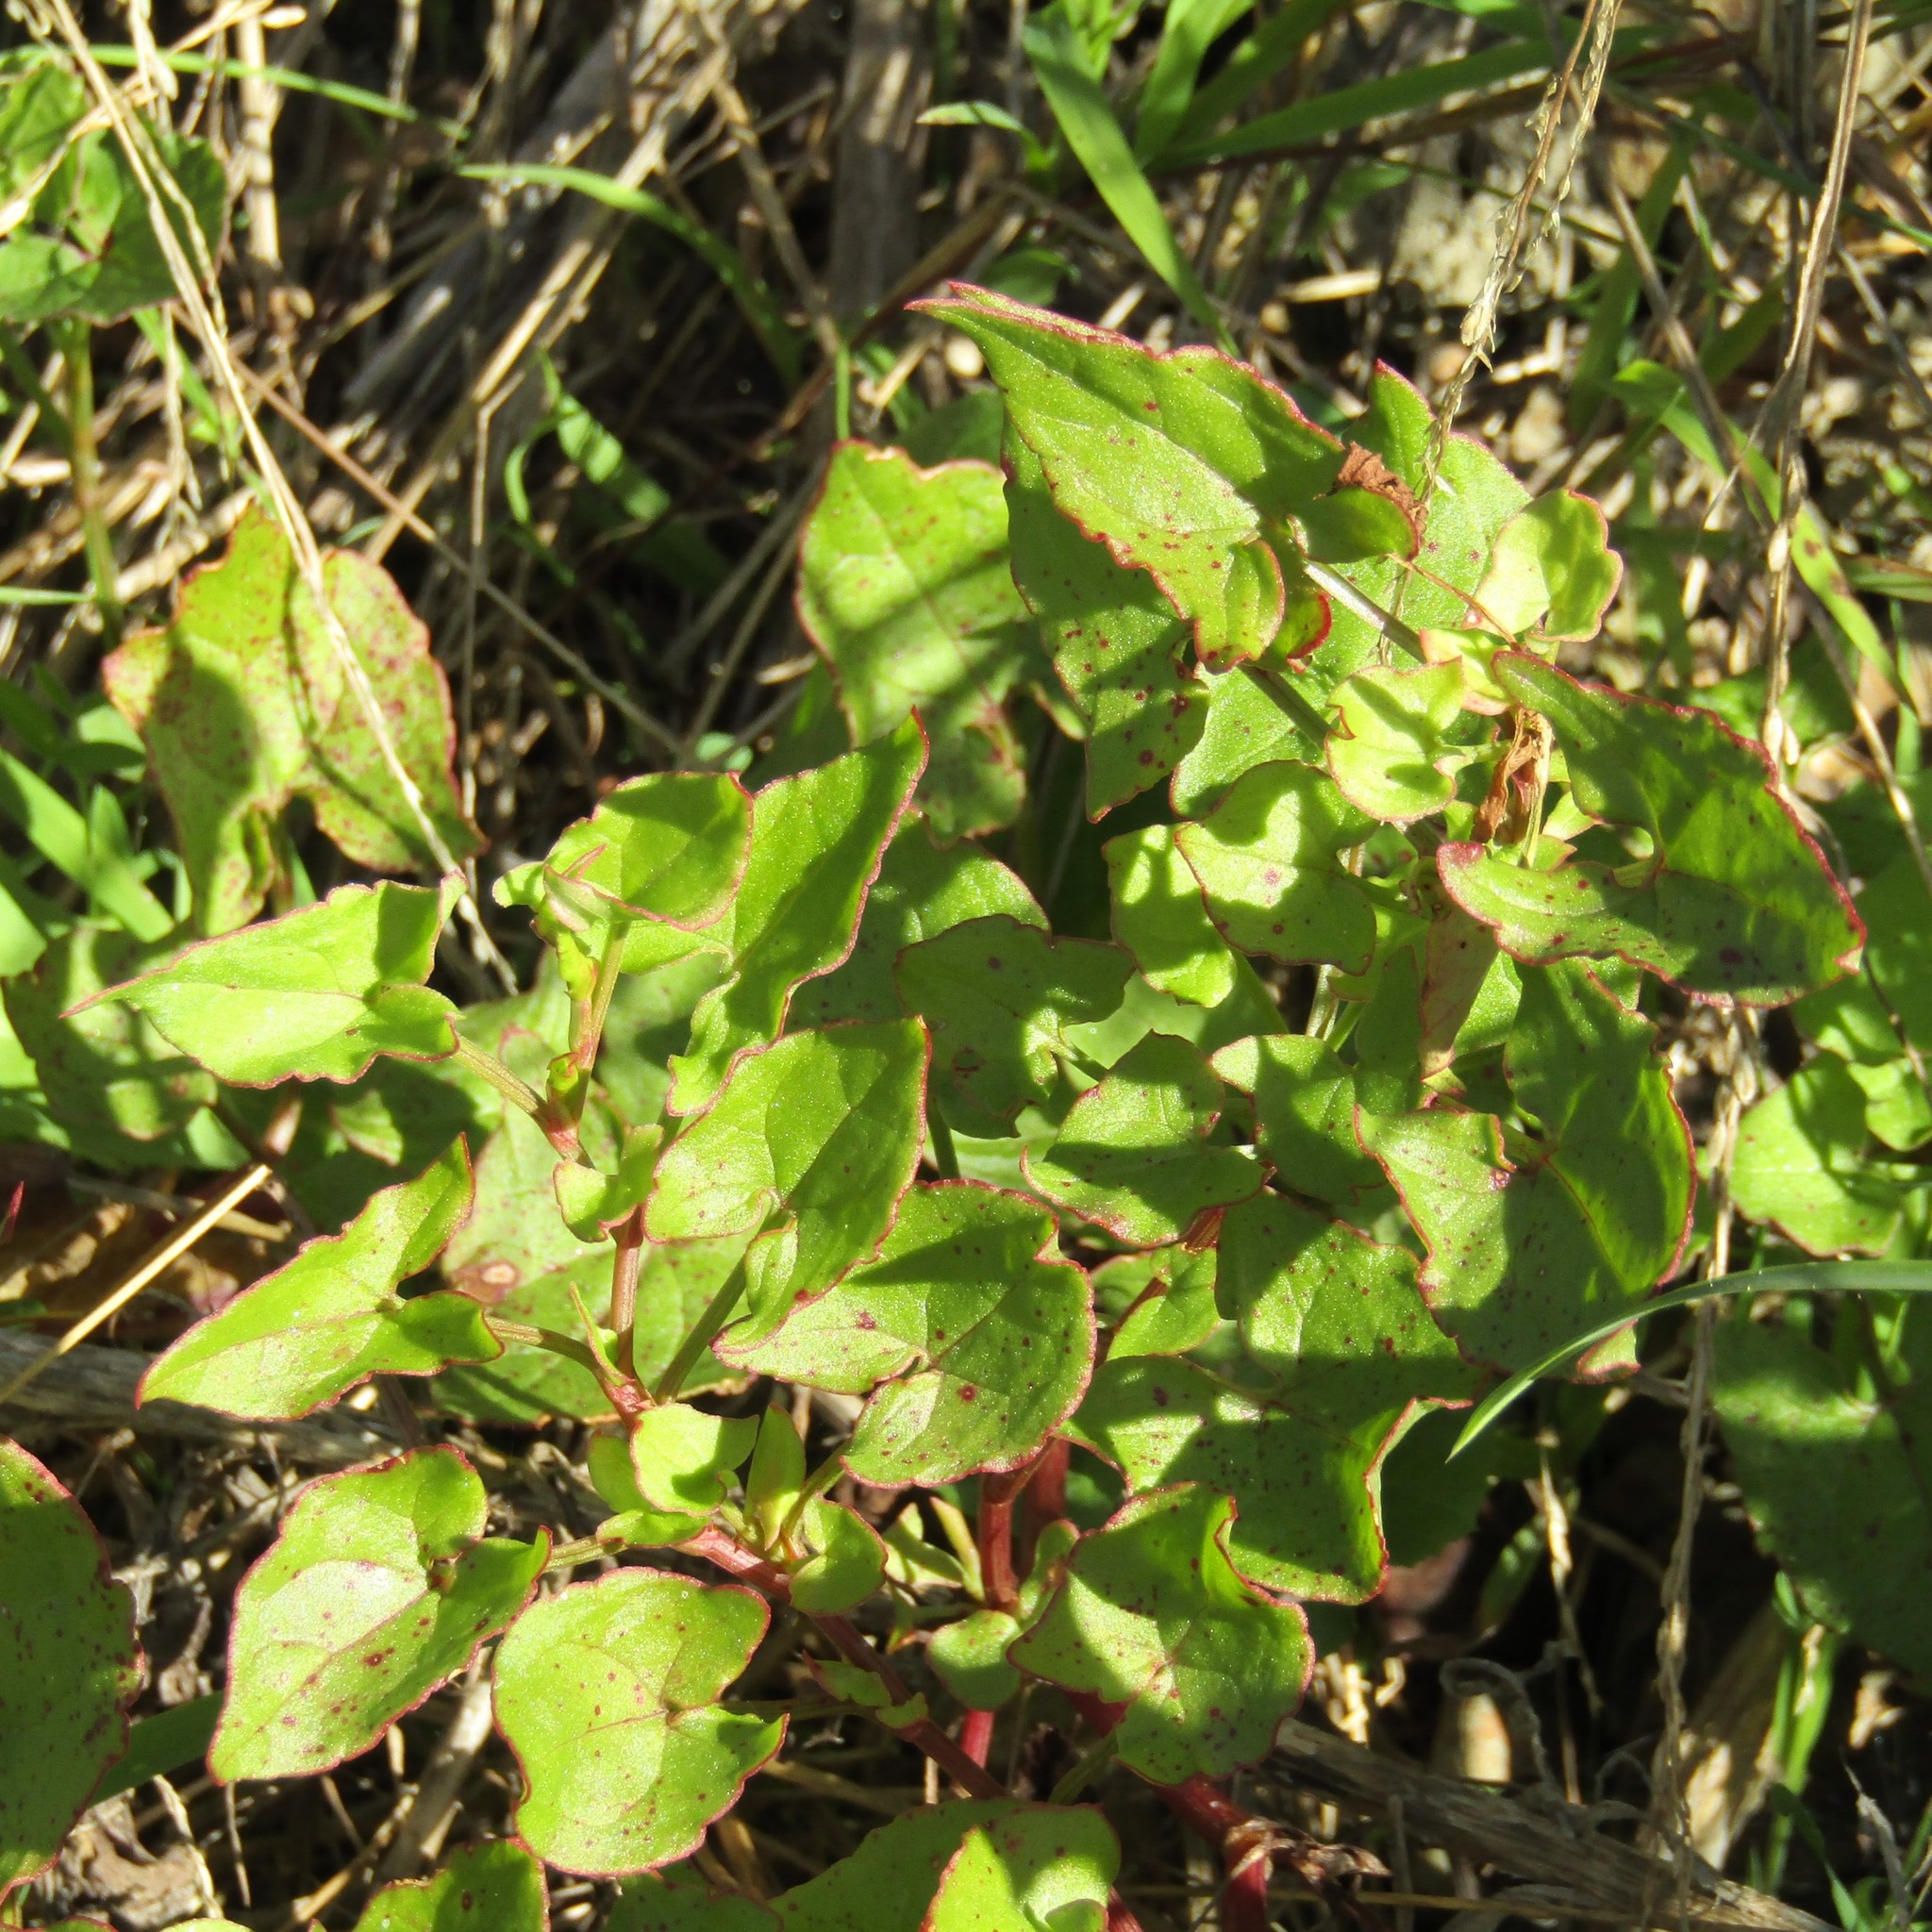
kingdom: Plantae
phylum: Tracheophyta
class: Magnoliopsida
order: Caryophyllales
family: Polygonaceae
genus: Rumex
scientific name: Rumex sagittatus
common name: Climbing dock
